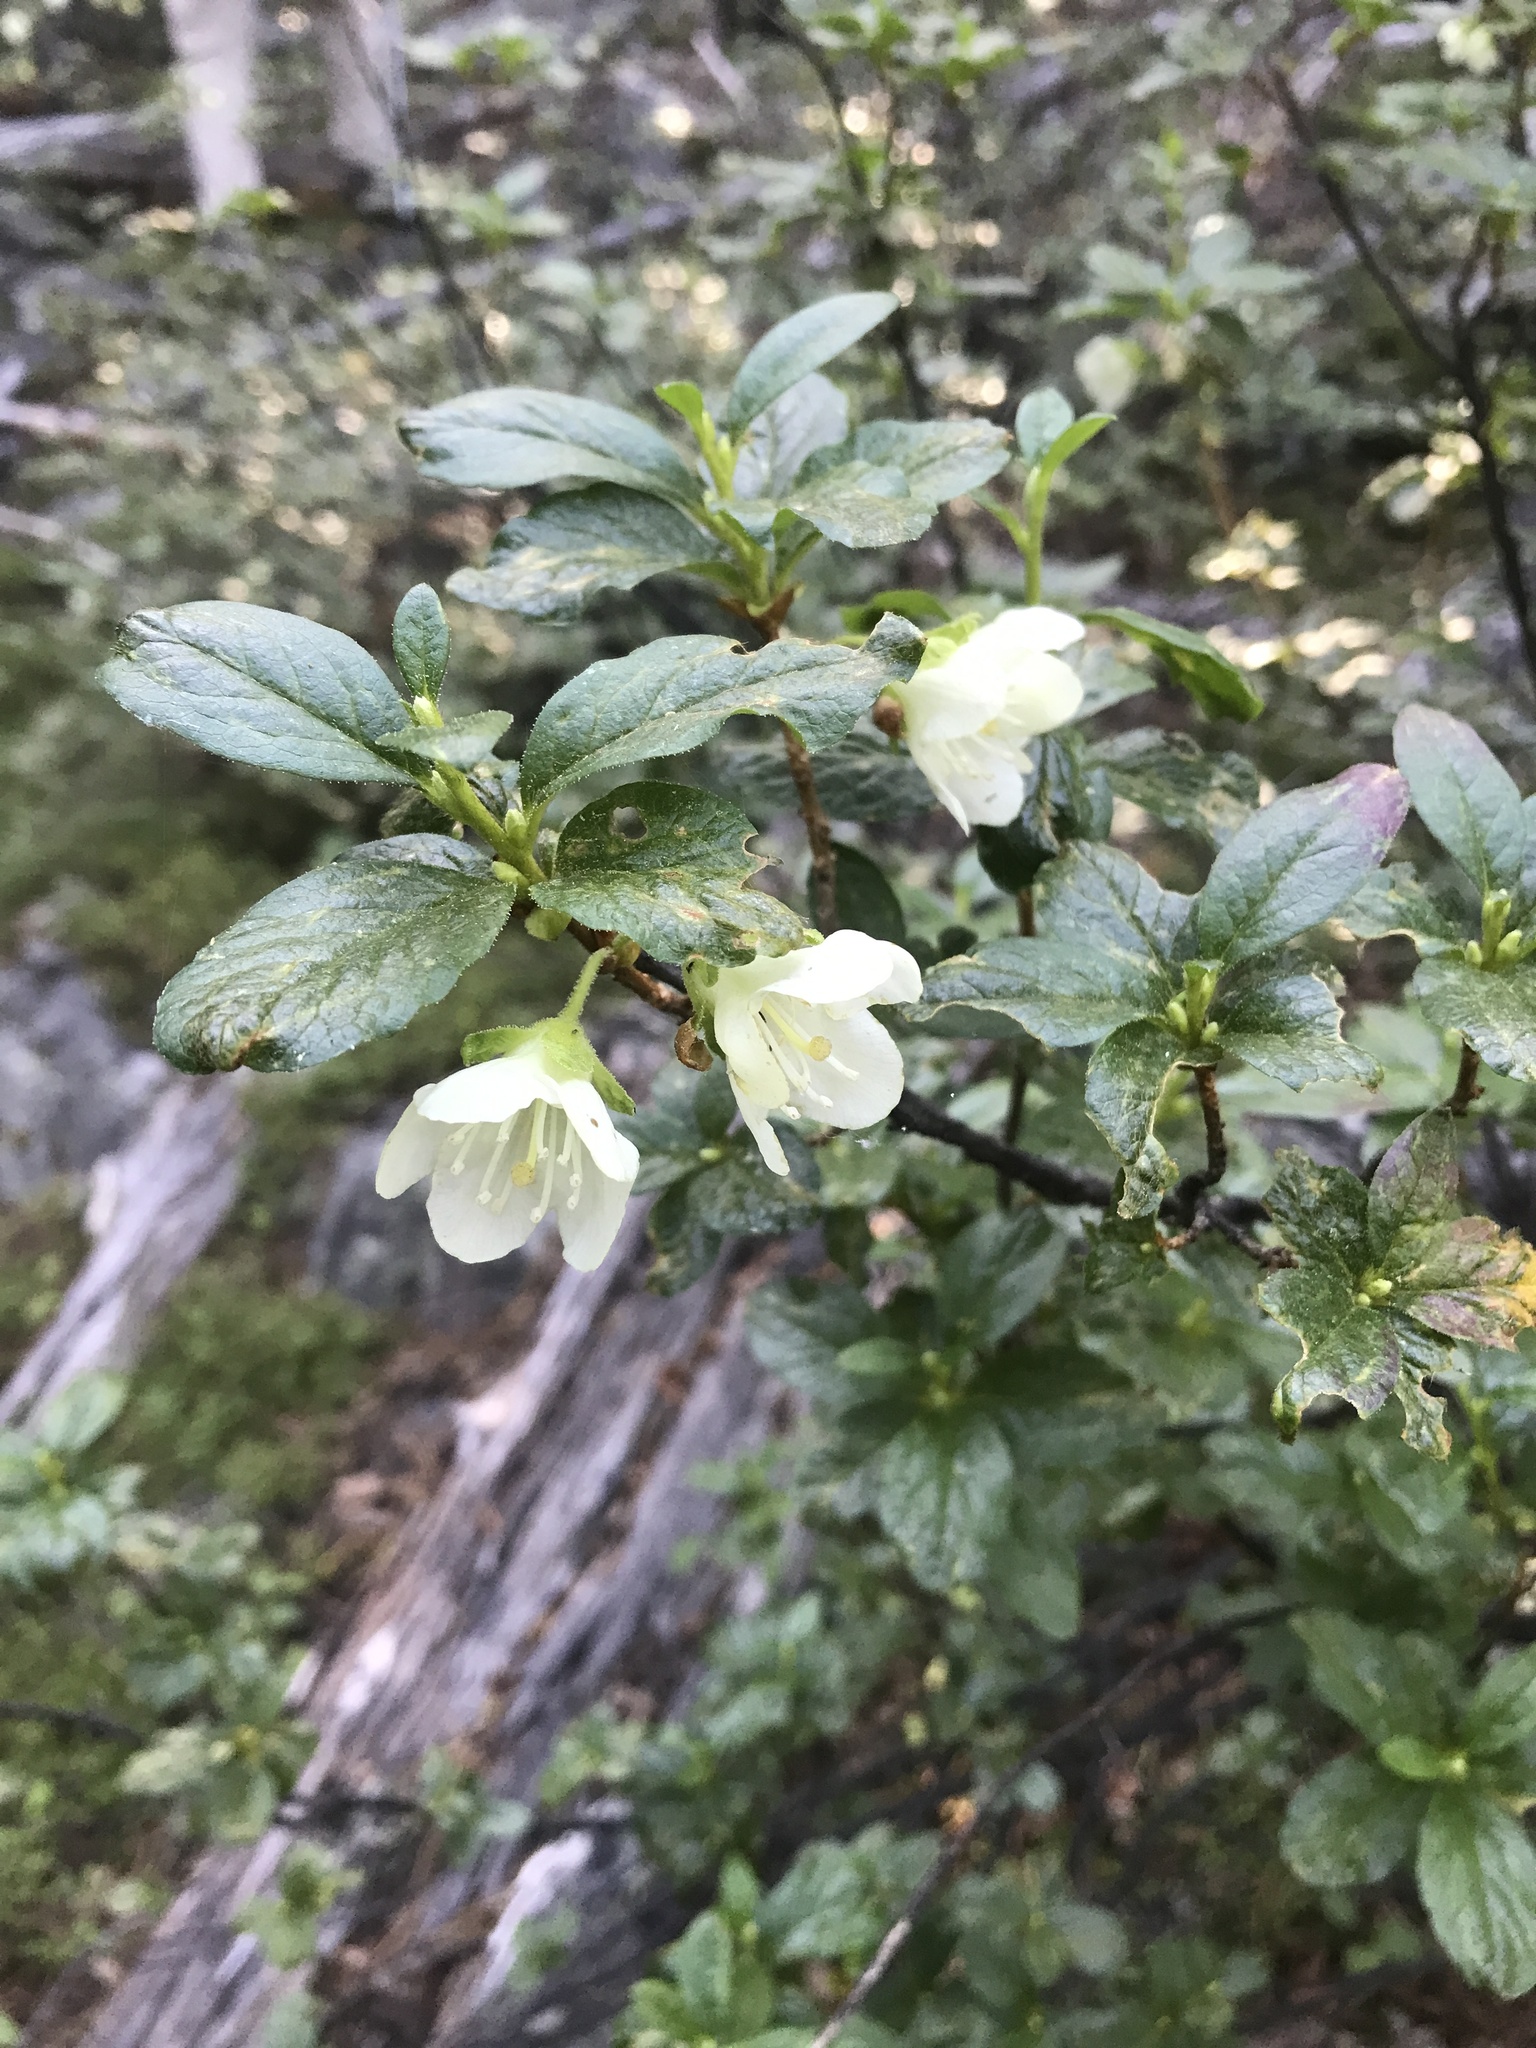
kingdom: Plantae
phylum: Tracheophyta
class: Magnoliopsida
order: Ericales
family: Ericaceae
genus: Rhododendron
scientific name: Rhododendron albiflorum
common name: White rhododendron
